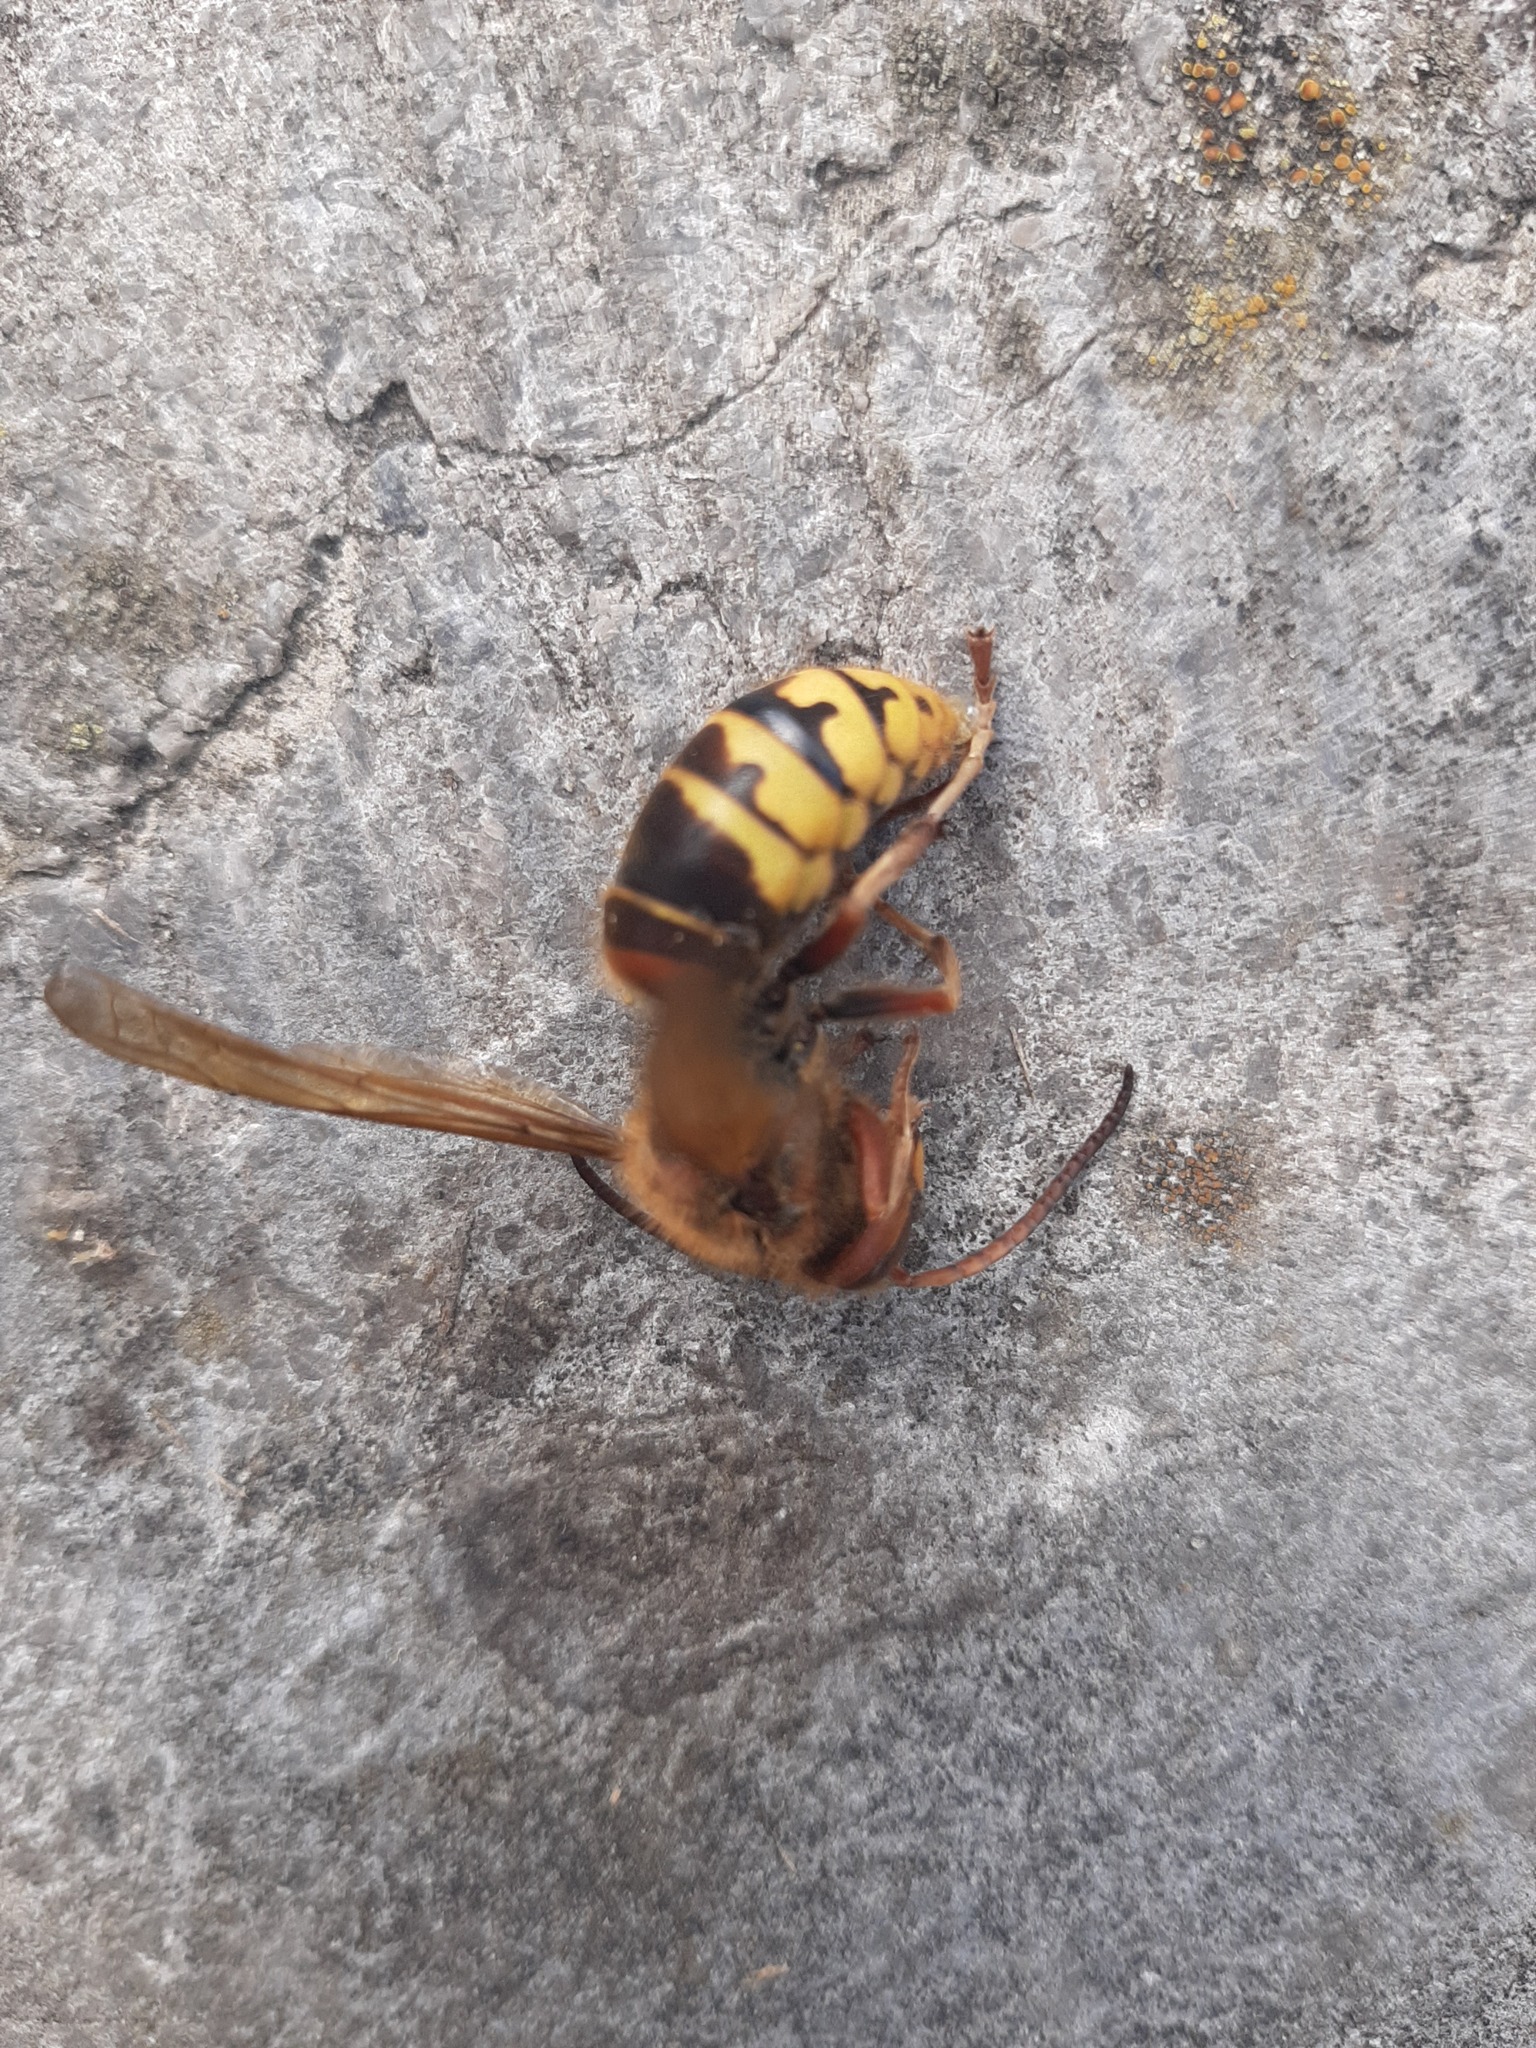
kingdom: Animalia
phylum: Arthropoda
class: Insecta
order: Hymenoptera
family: Vespidae
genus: Vespa
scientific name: Vespa crabro
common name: Hornet
